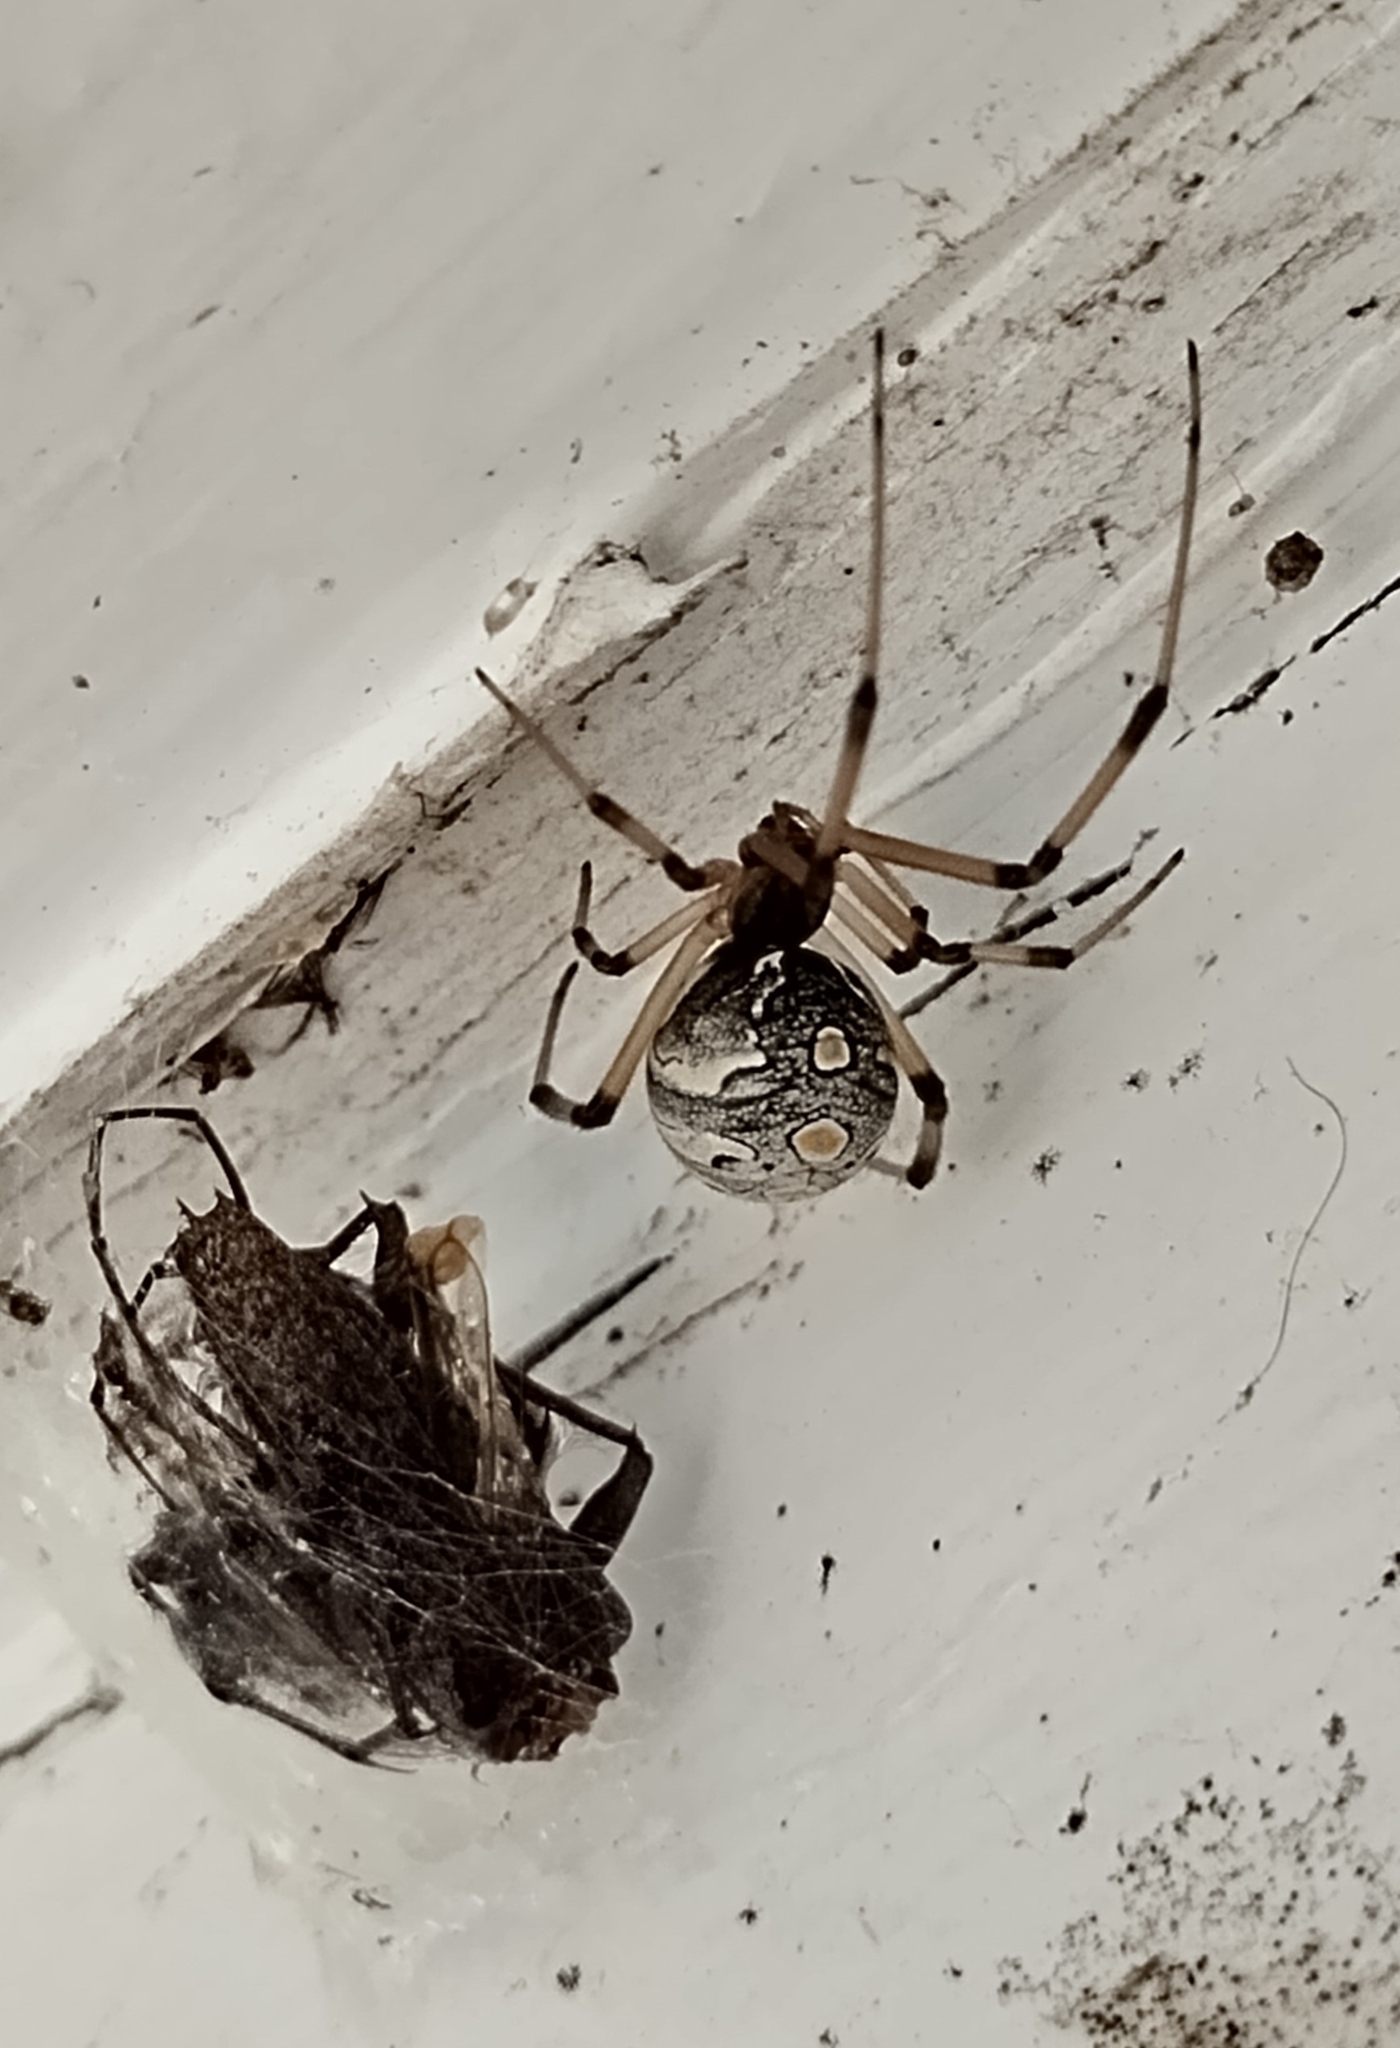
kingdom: Animalia
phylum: Arthropoda
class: Arachnida
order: Araneae
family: Theridiidae
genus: Latrodectus
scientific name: Latrodectus geometricus
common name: Brown widow spider
